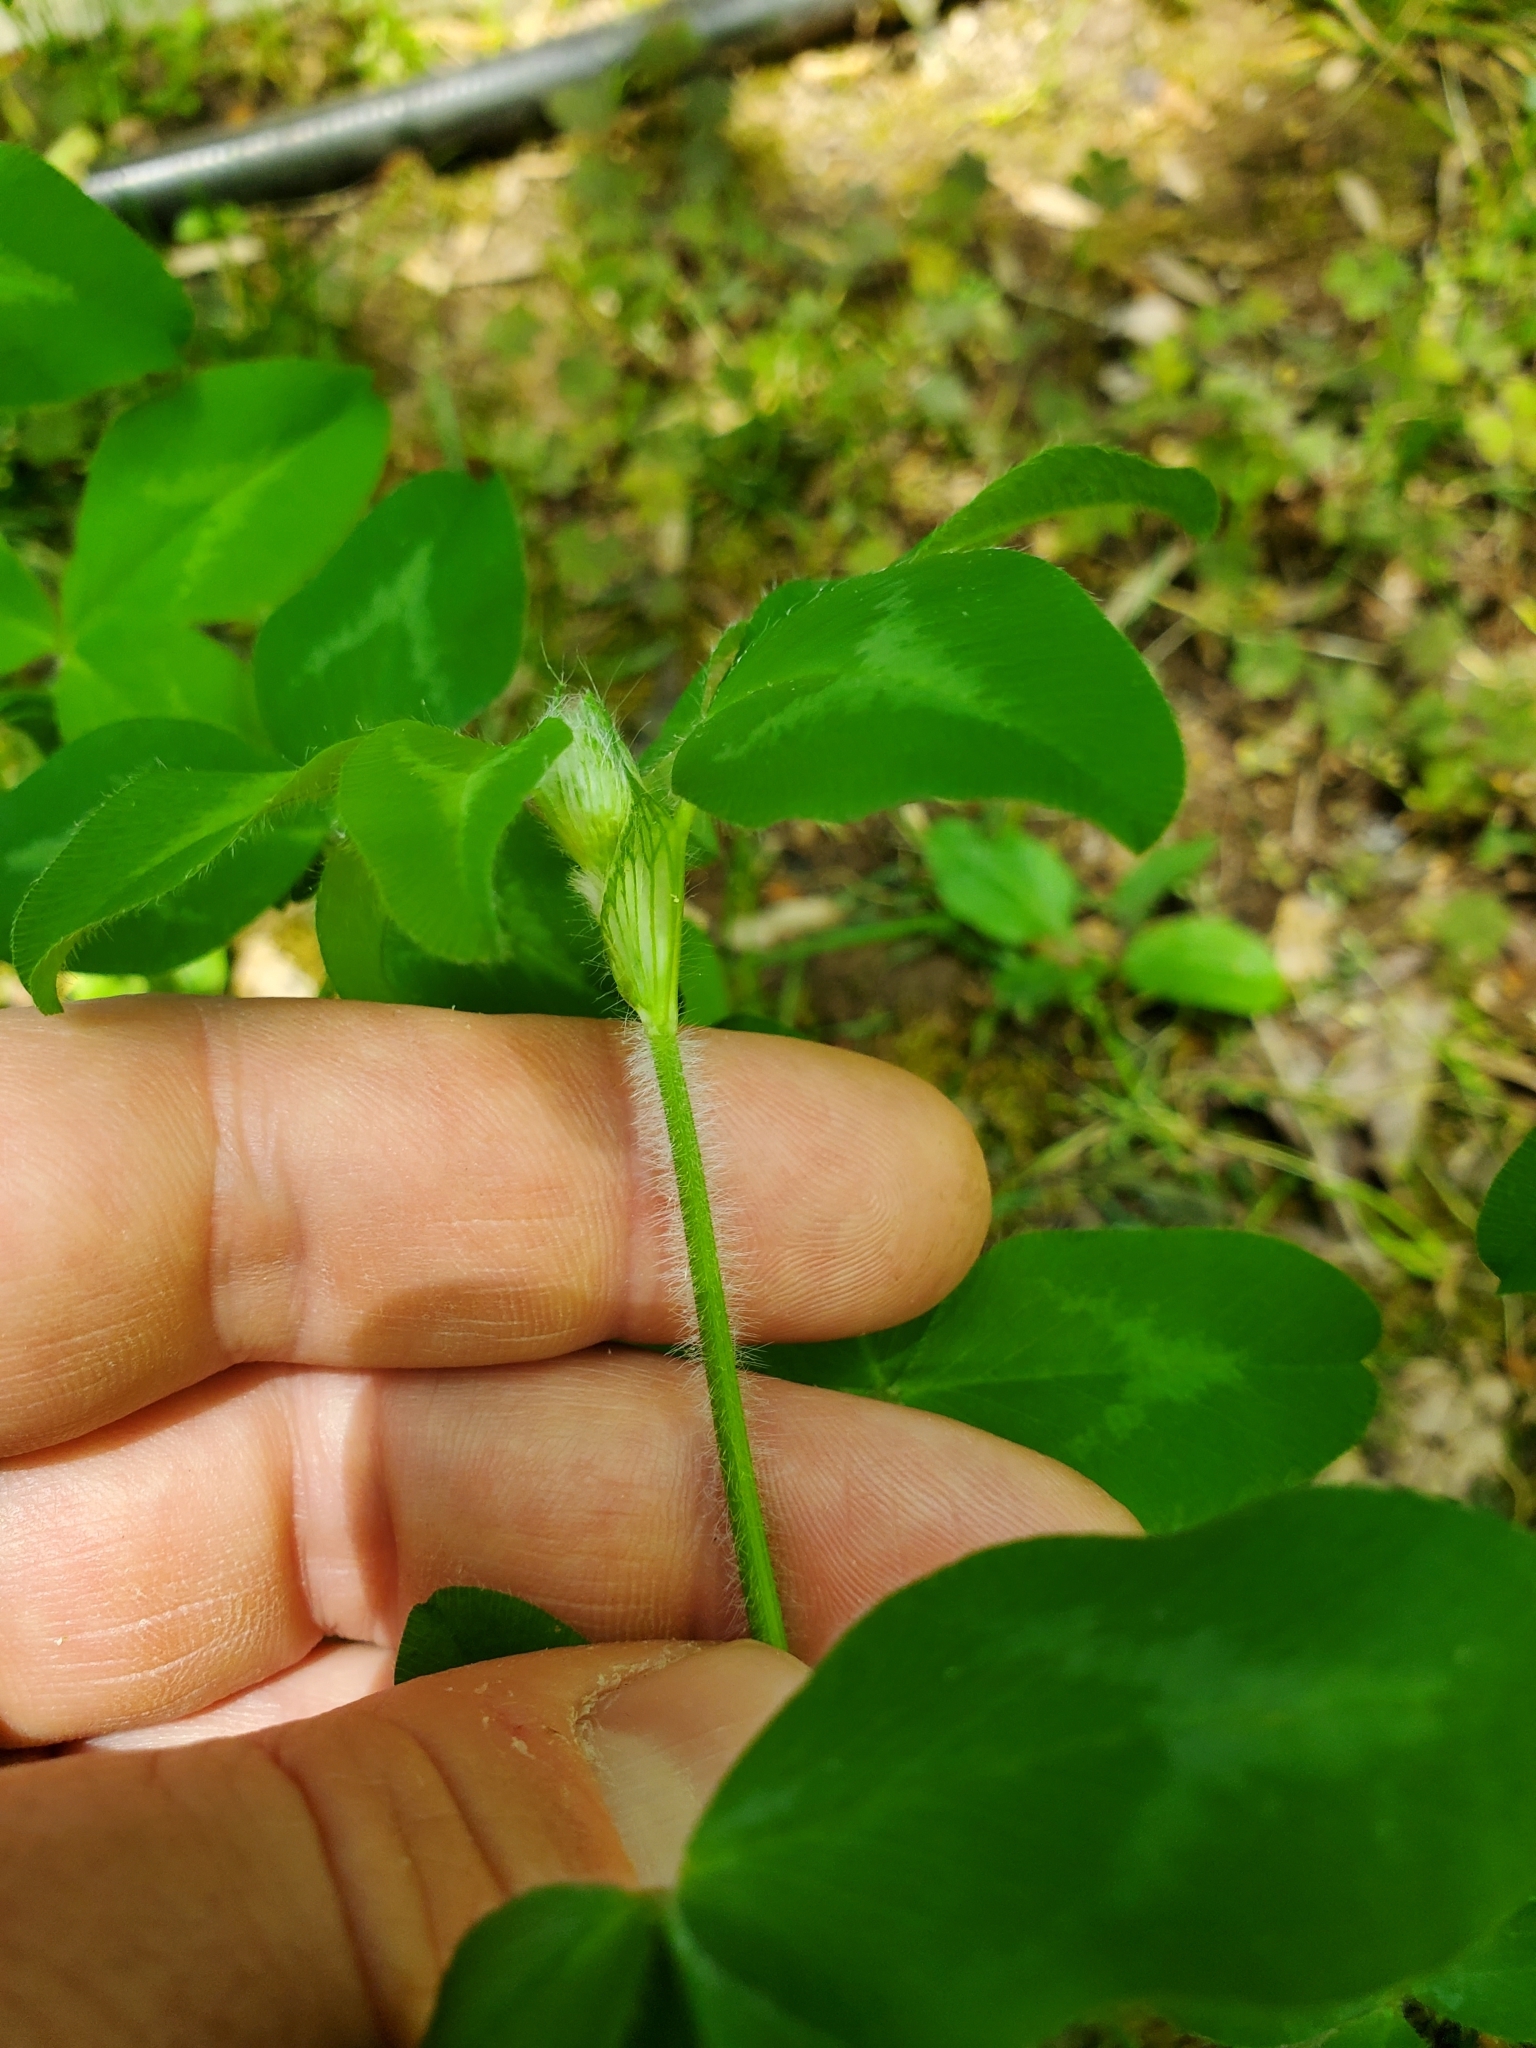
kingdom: Plantae
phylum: Tracheophyta
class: Magnoliopsida
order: Fabales
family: Fabaceae
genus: Trifolium
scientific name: Trifolium pratense
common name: Red clover
